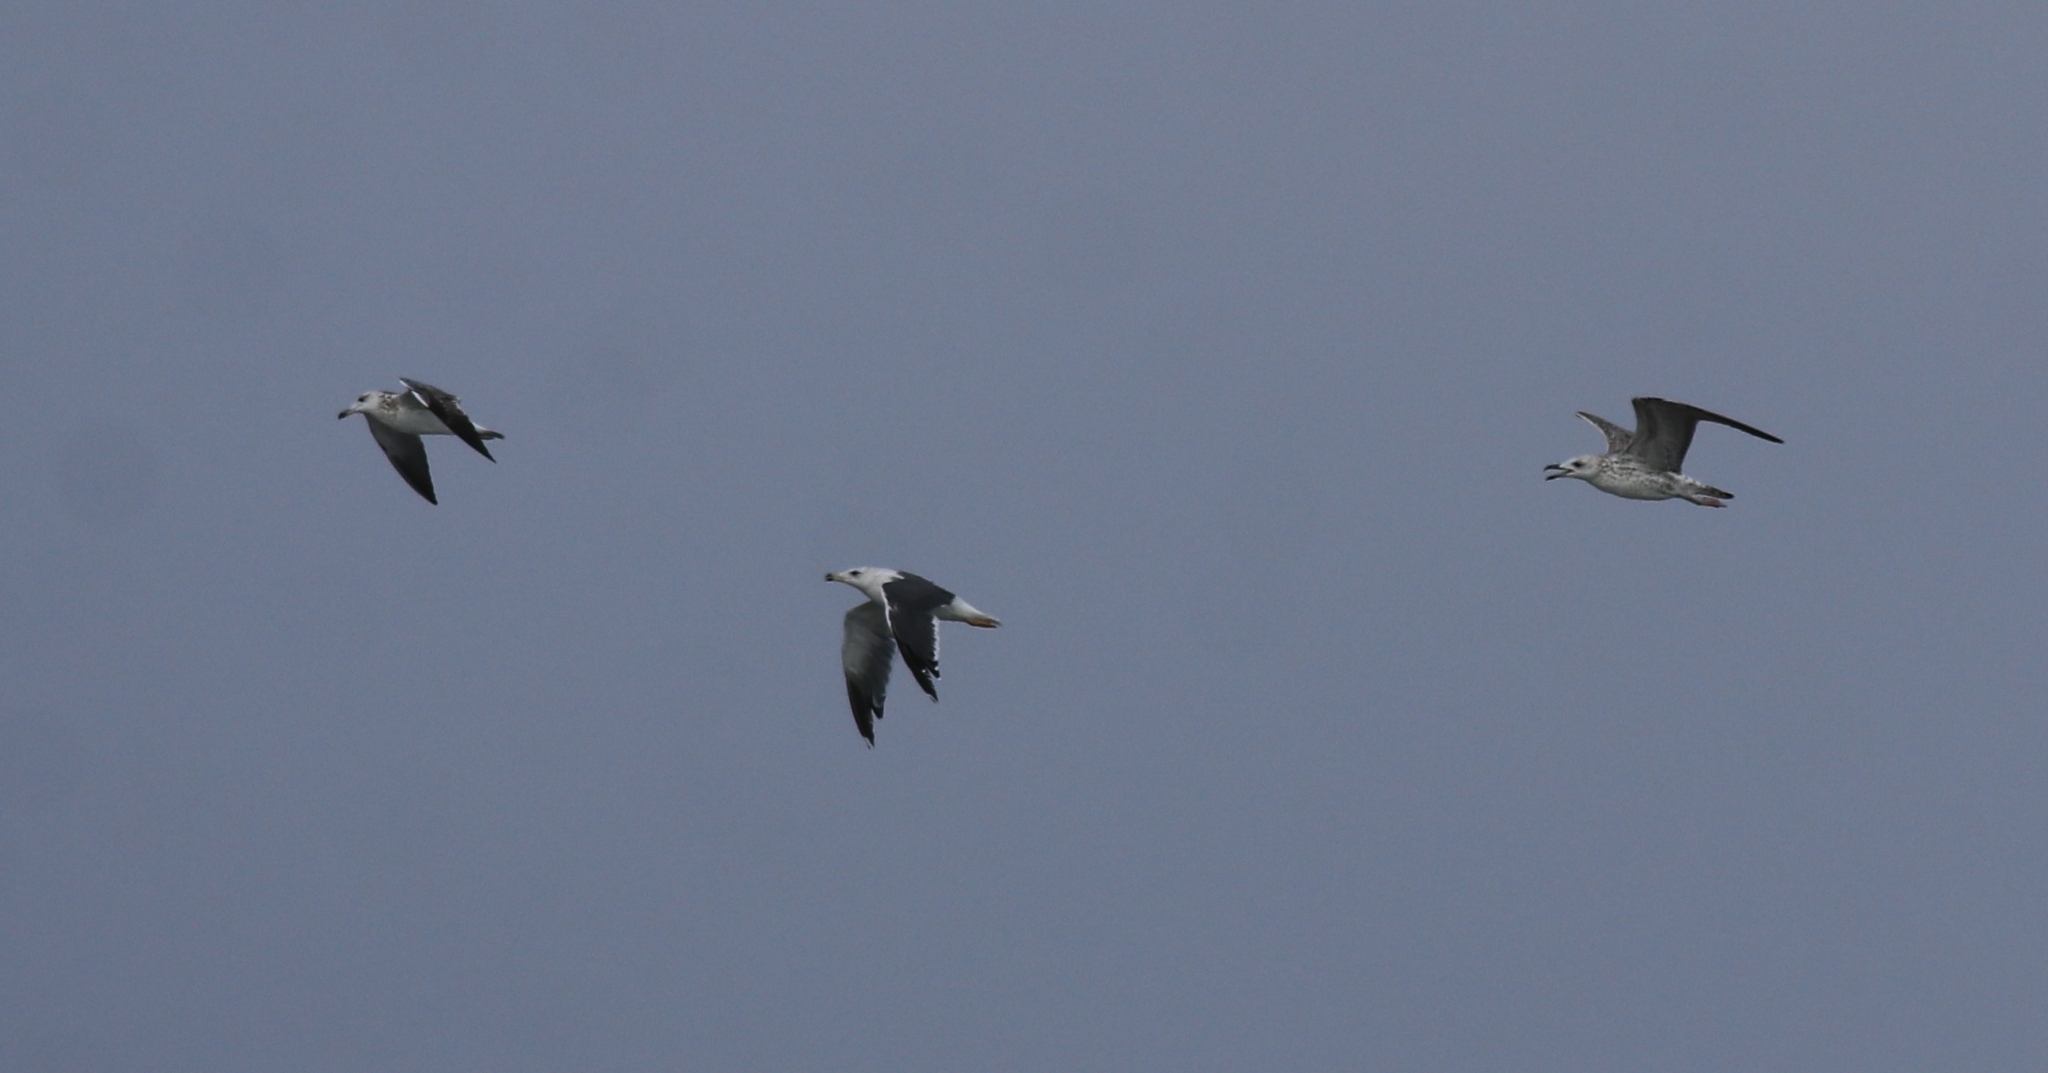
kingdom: Animalia
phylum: Chordata
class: Aves
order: Charadriiformes
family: Laridae
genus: Larus
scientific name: Larus fuscus
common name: Lesser black-backed gull
